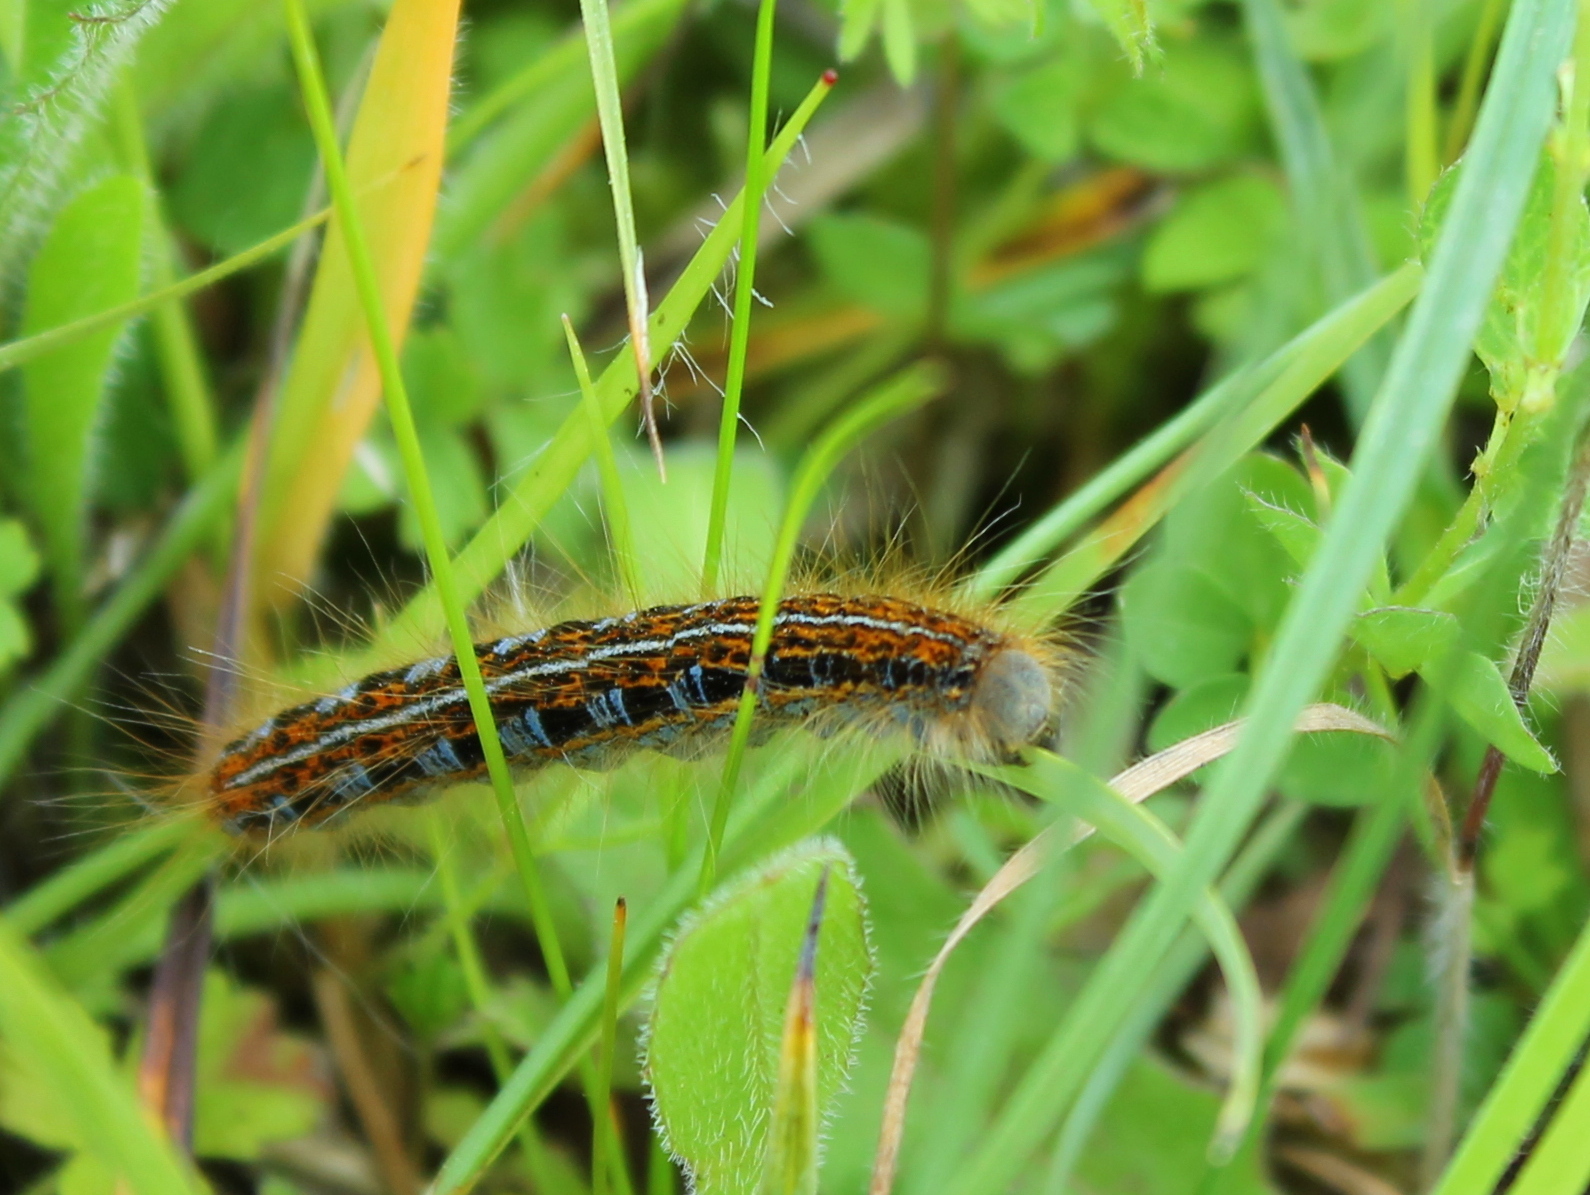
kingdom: Animalia
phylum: Arthropoda
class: Insecta
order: Lepidoptera
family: Lasiocampidae
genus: Malacosoma
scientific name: Malacosoma castrense
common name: Ground lackey
